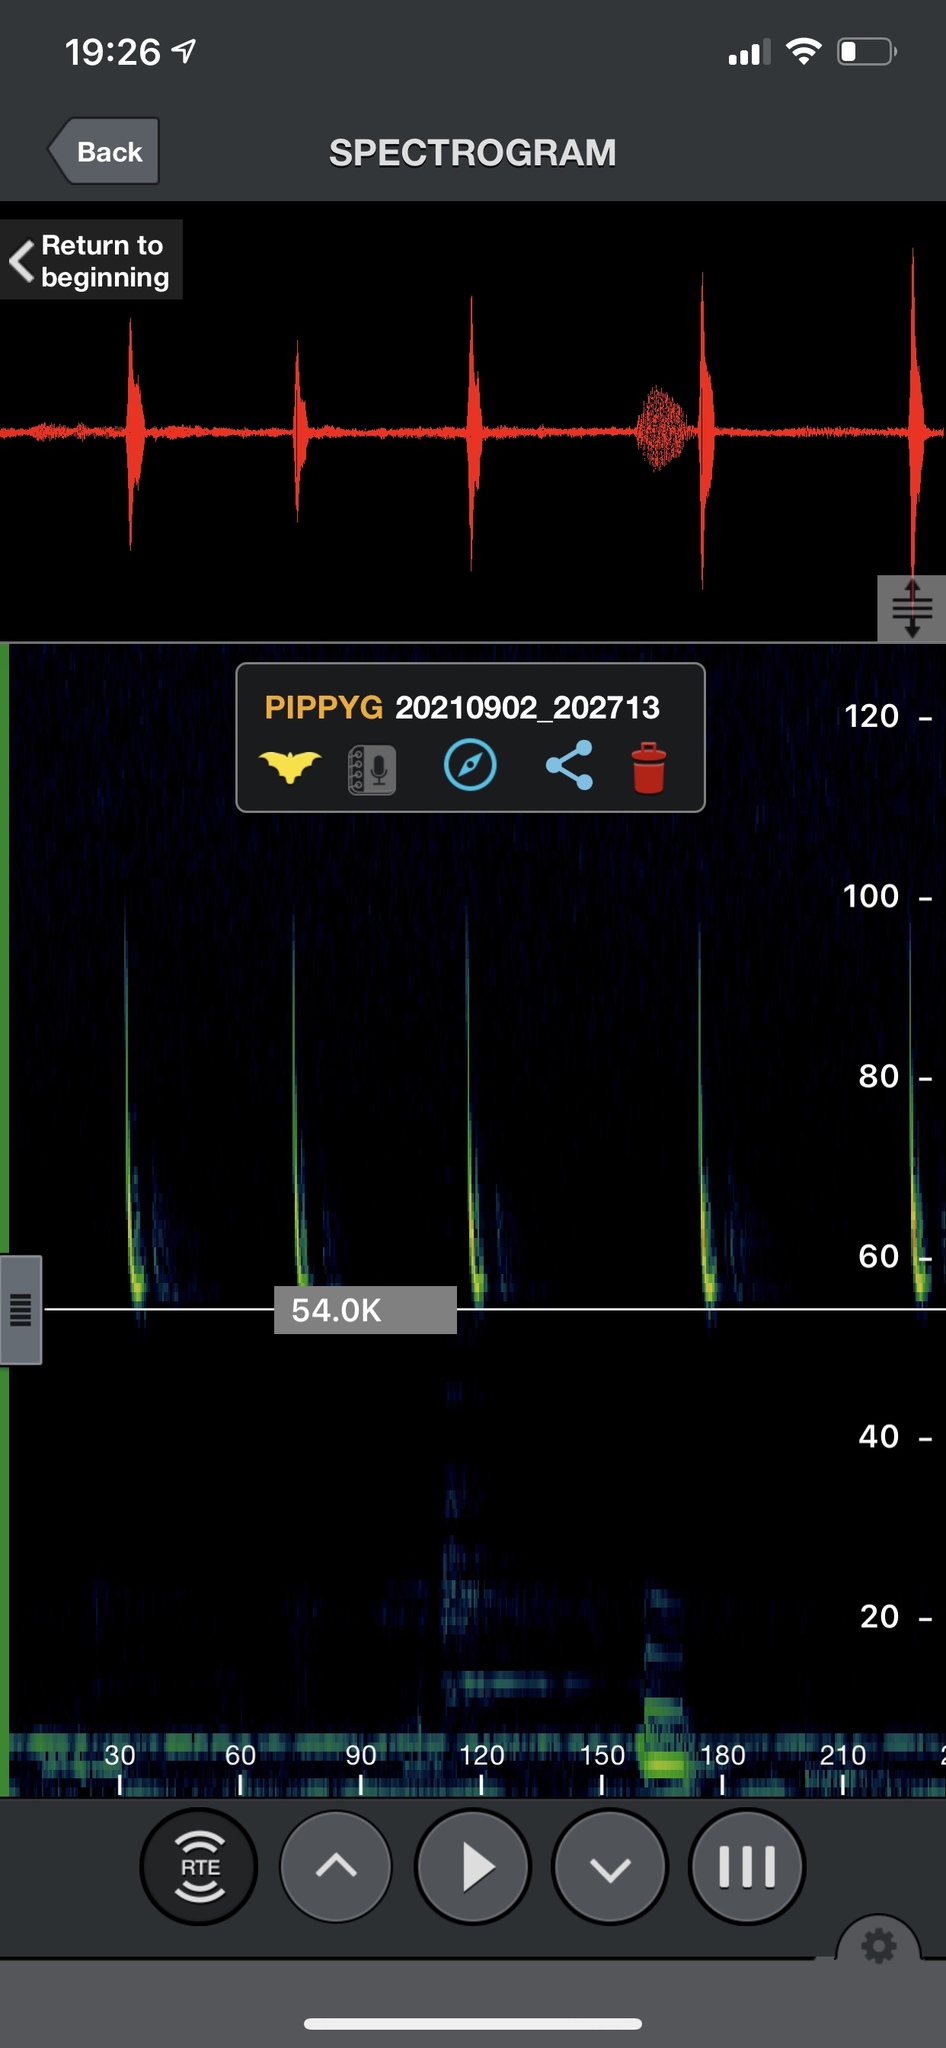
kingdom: Animalia
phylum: Chordata
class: Mammalia
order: Chiroptera
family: Vespertilionidae
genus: Pipistrellus
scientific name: Pipistrellus pygmaeus
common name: Soprano pipistrelle
